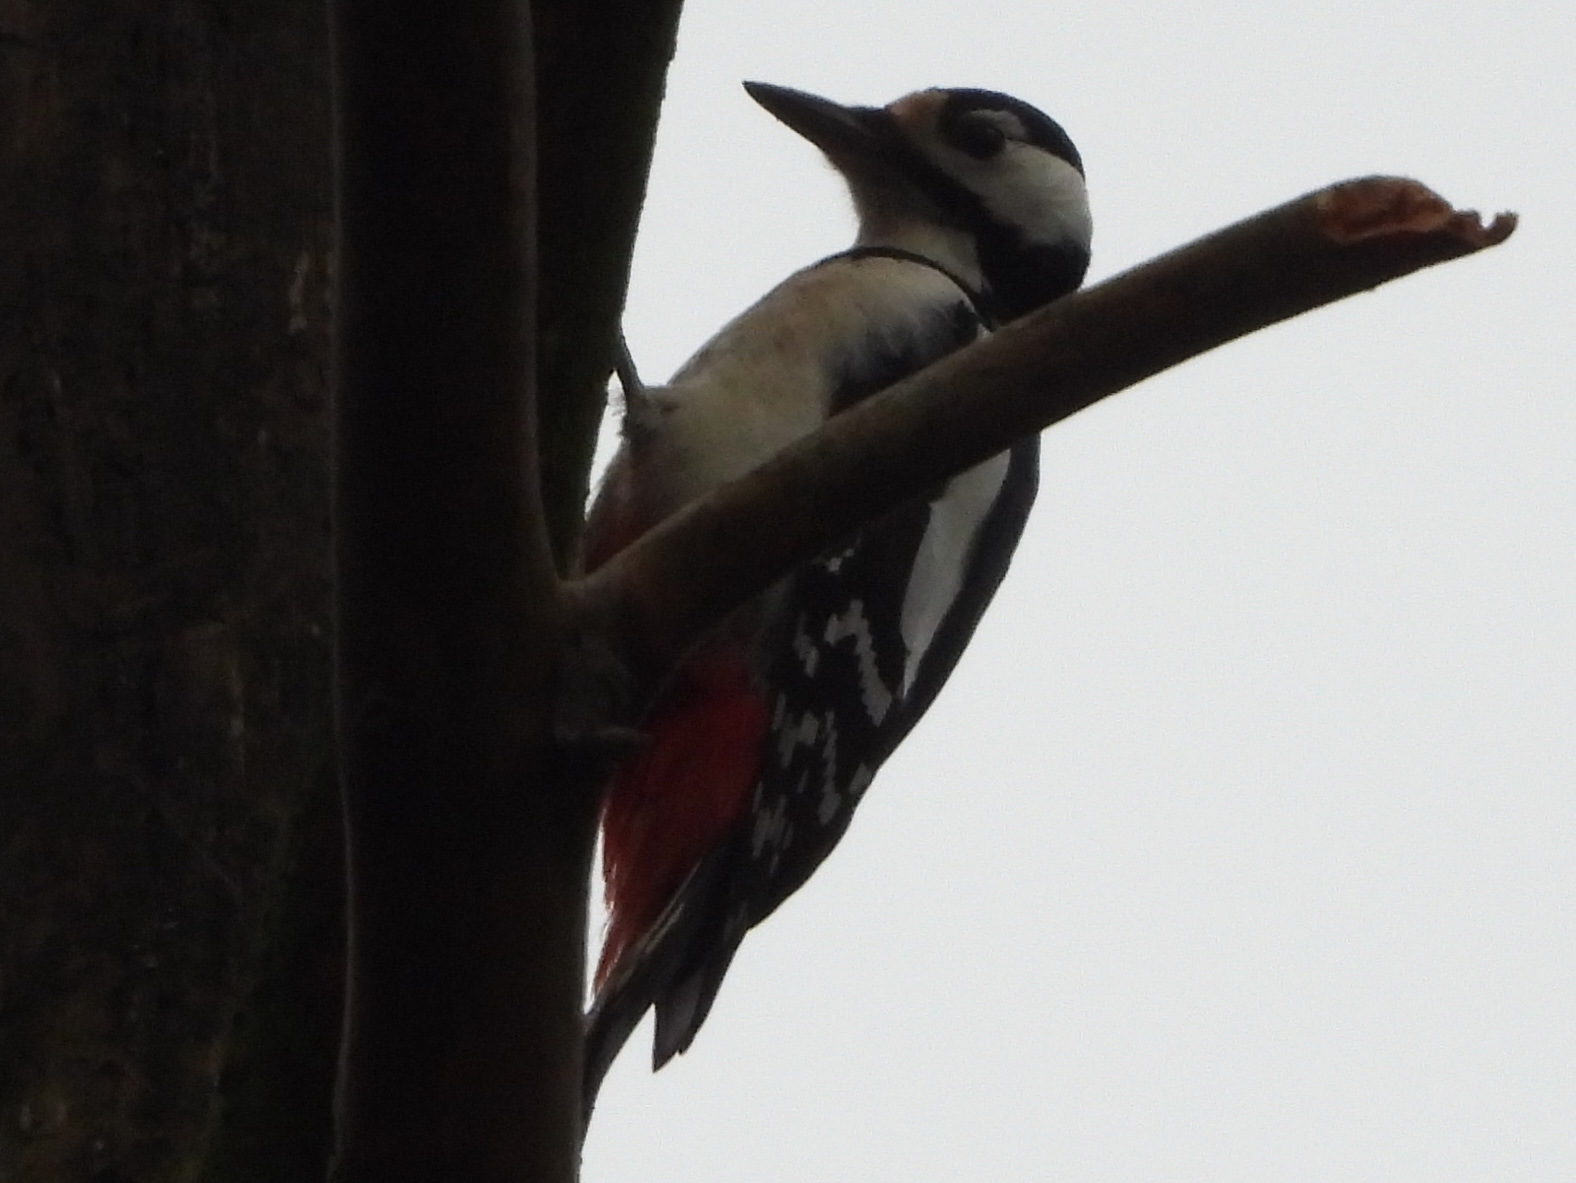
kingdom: Animalia
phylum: Chordata
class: Aves
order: Piciformes
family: Picidae
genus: Dendrocopos
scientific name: Dendrocopos major
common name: Great spotted woodpecker
